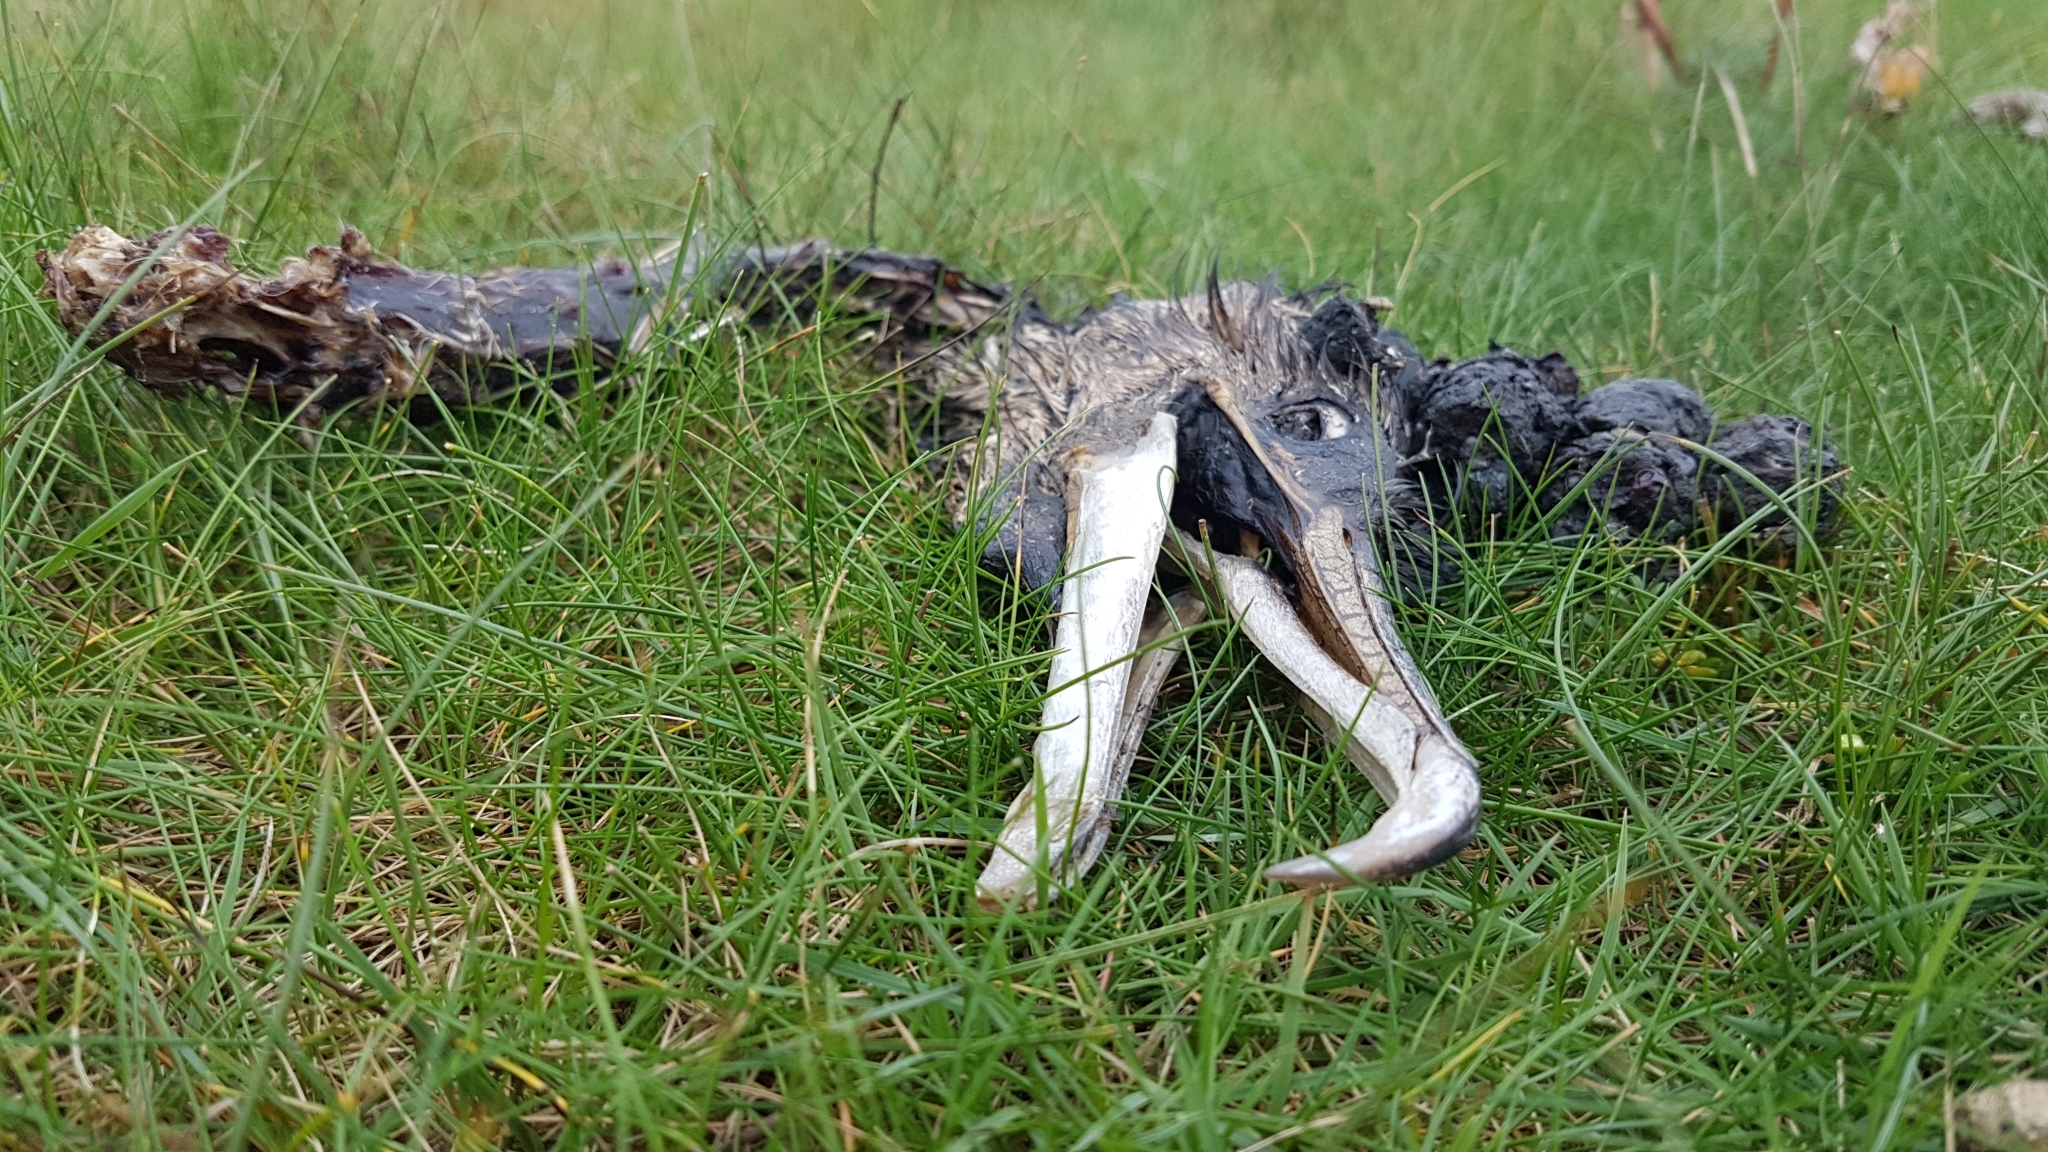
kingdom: Animalia
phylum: Chordata
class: Aves
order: Suliformes
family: Phalacrocoracidae
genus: Phalacrocorax
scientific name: Phalacrocorax carbo
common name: Great cormorant
